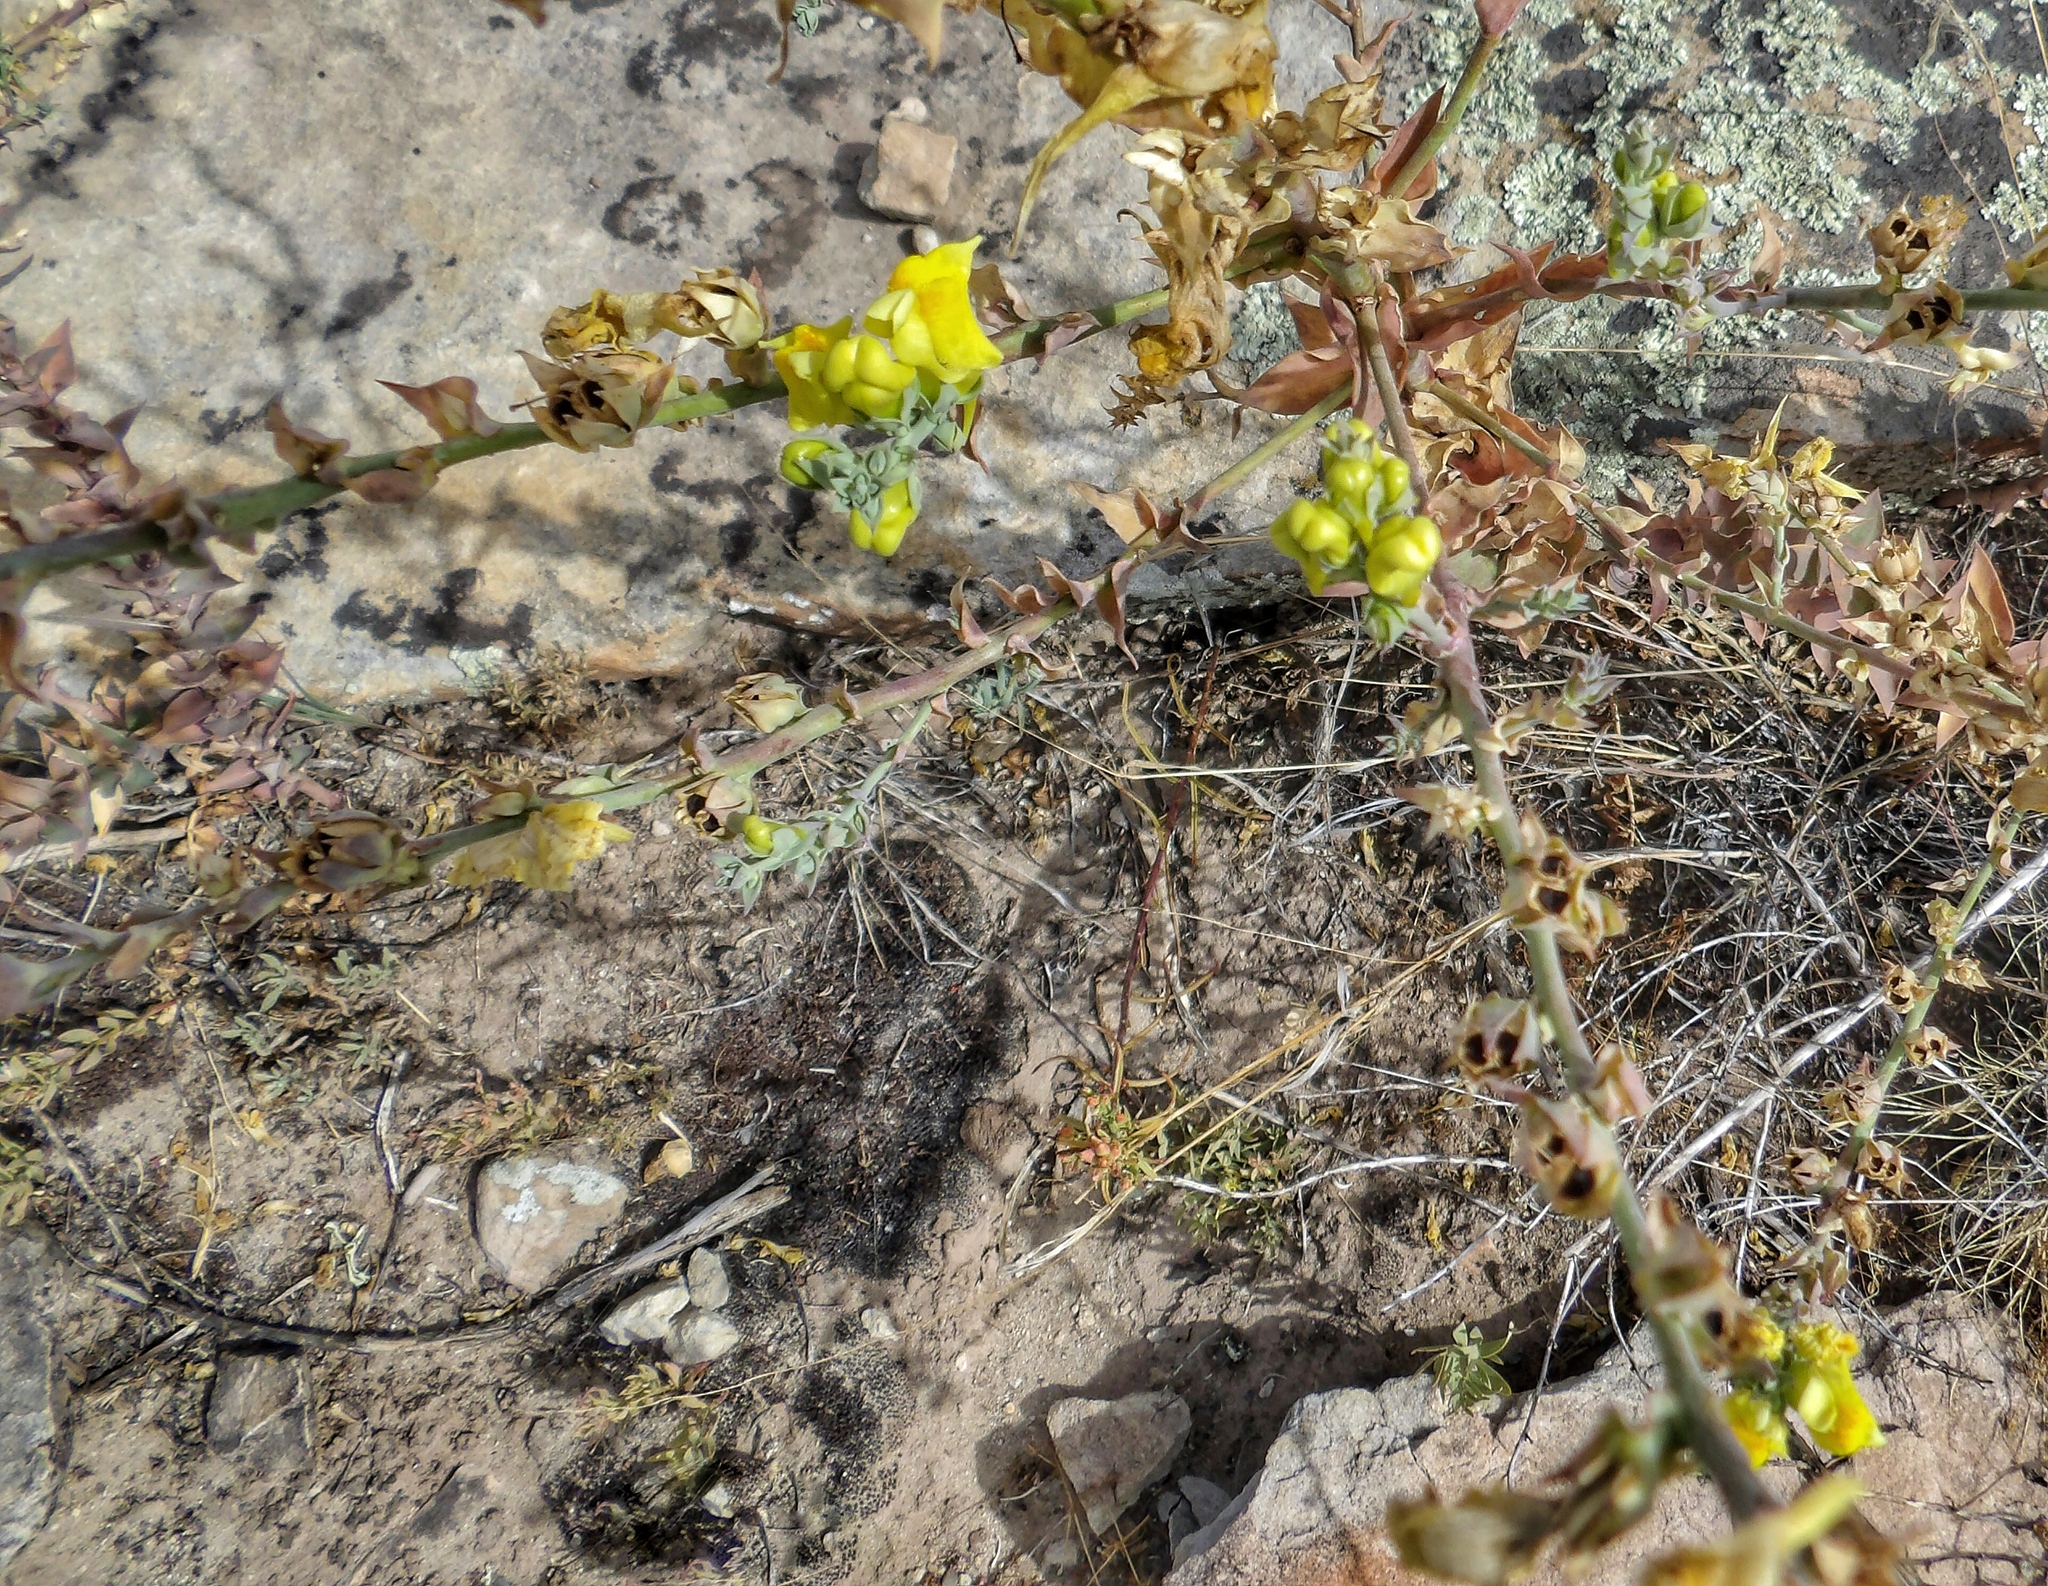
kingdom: Plantae
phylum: Tracheophyta
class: Magnoliopsida
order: Lamiales
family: Plantaginaceae
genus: Linaria
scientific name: Linaria dalmatica
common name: Dalmatian toadflax
